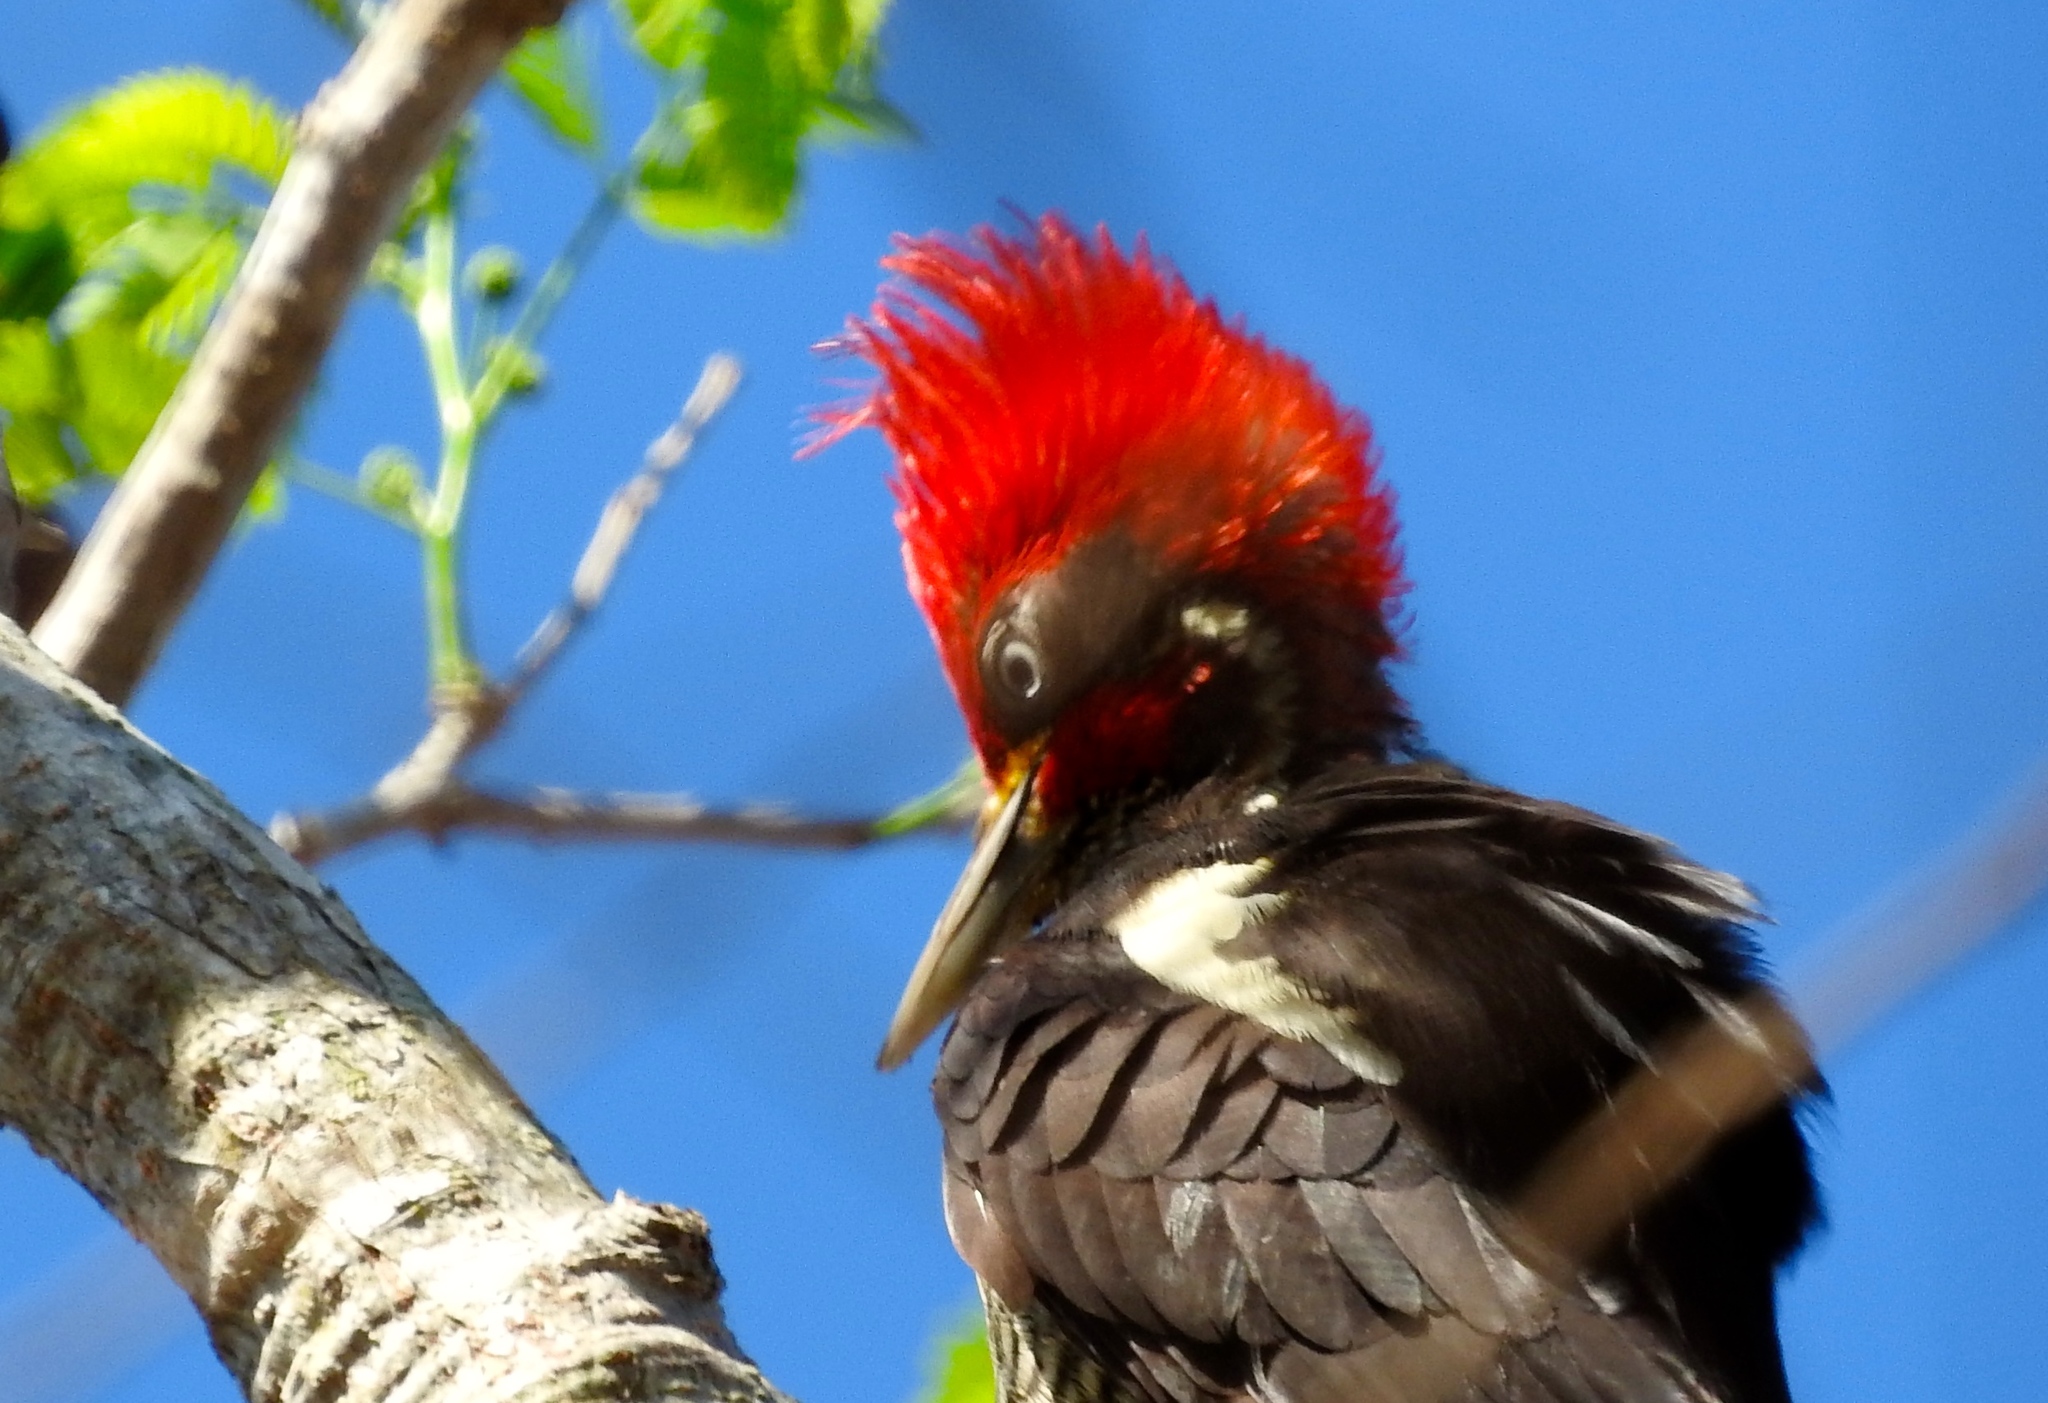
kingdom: Animalia
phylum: Chordata
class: Aves
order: Piciformes
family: Picidae
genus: Dryocopus
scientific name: Dryocopus lineatus
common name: Lineated woodpecker
